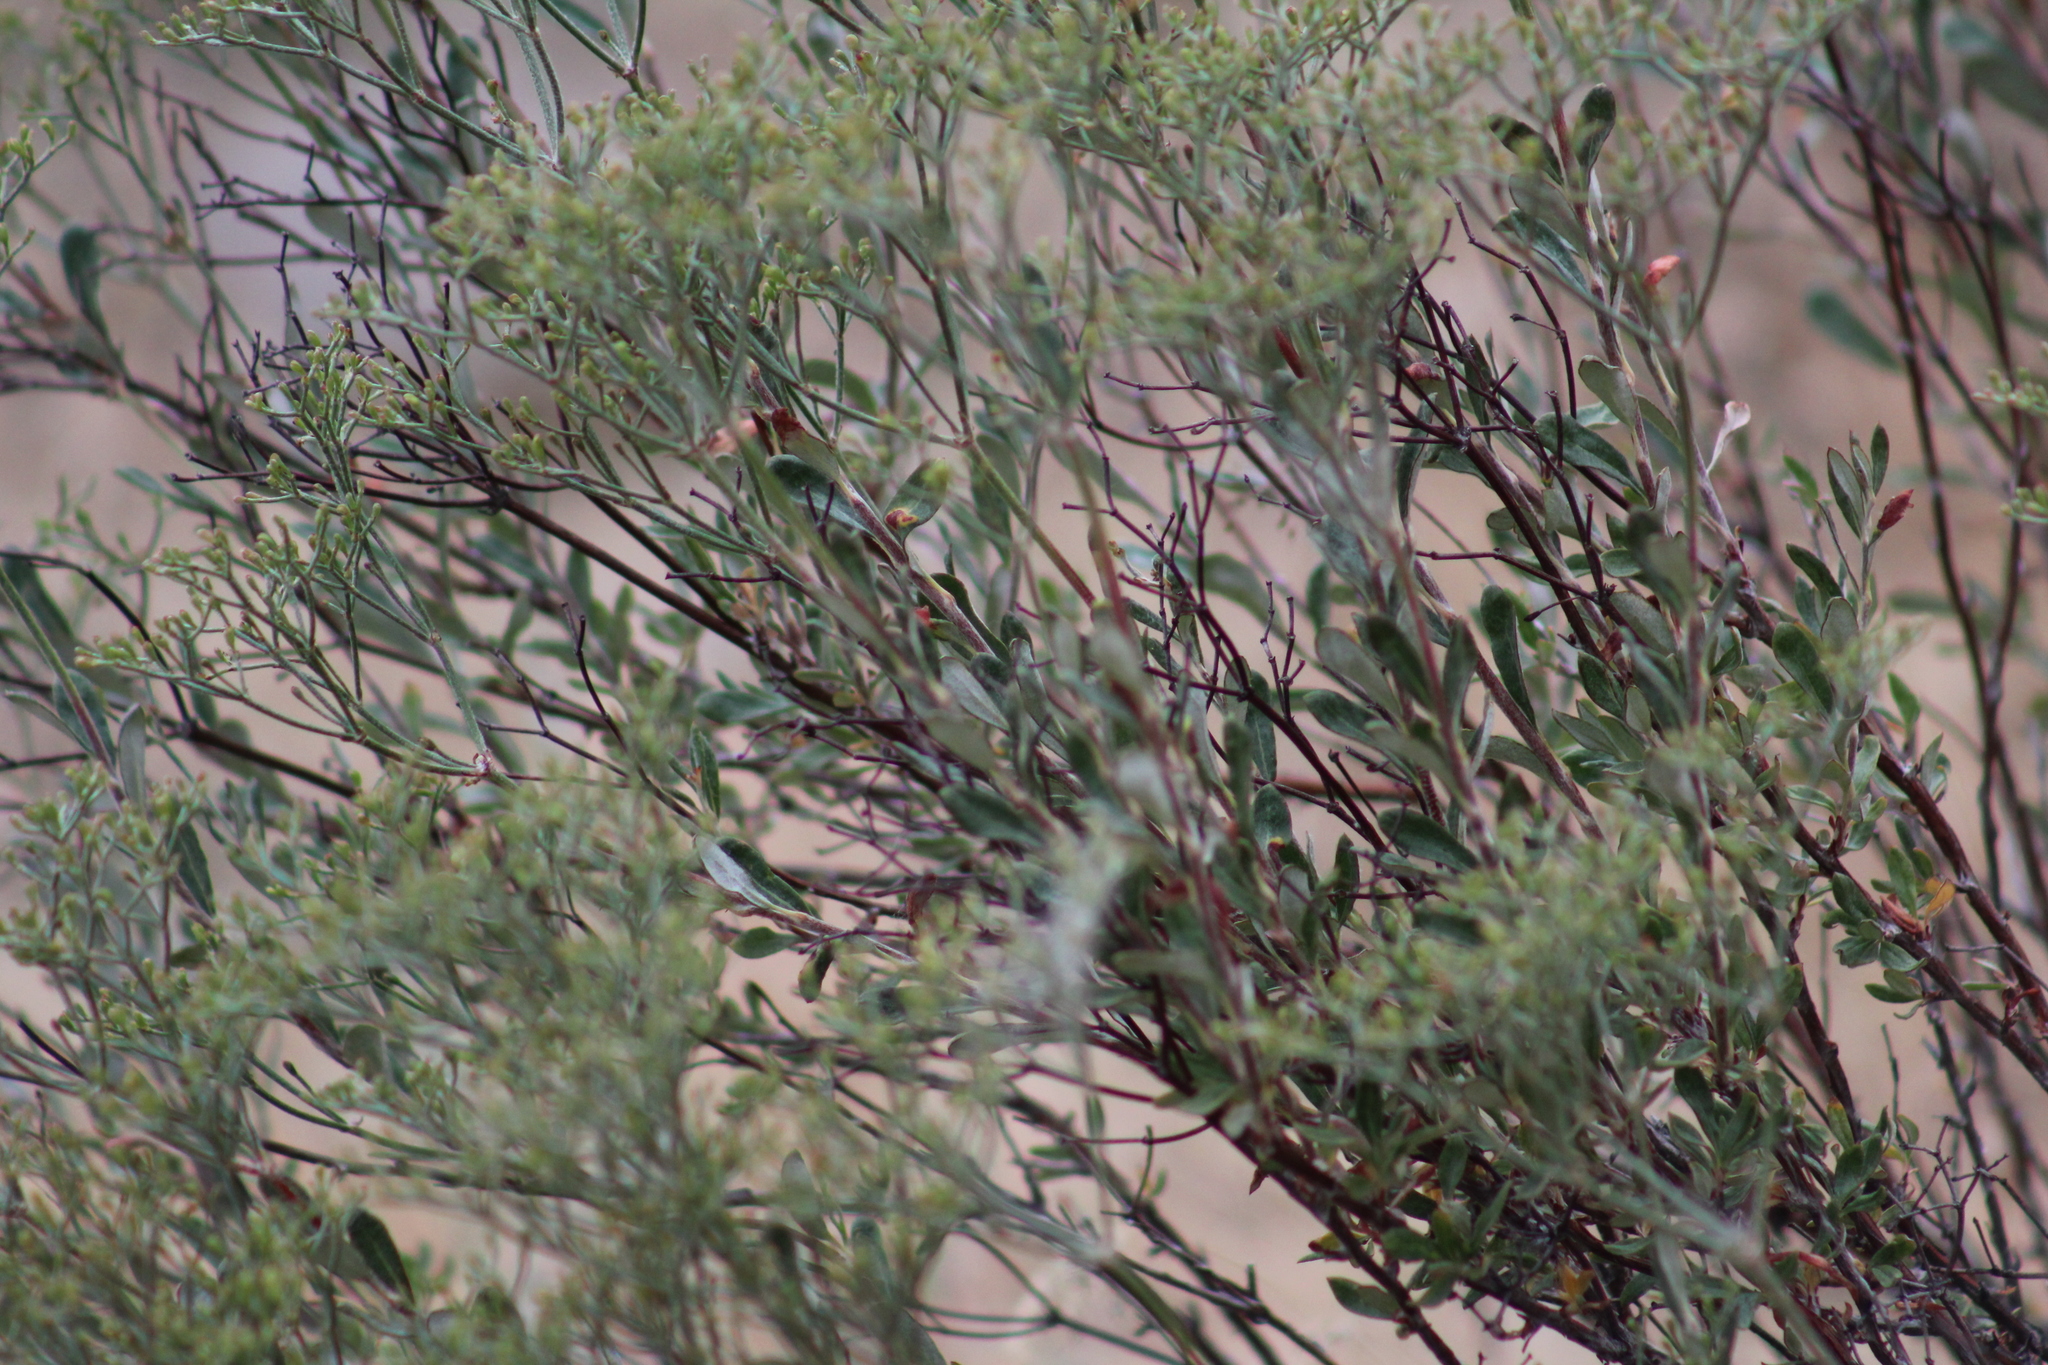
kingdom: Plantae
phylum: Tracheophyta
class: Magnoliopsida
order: Caryophyllales
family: Polygonaceae
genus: Eriogonum
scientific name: Eriogonum microtheca
